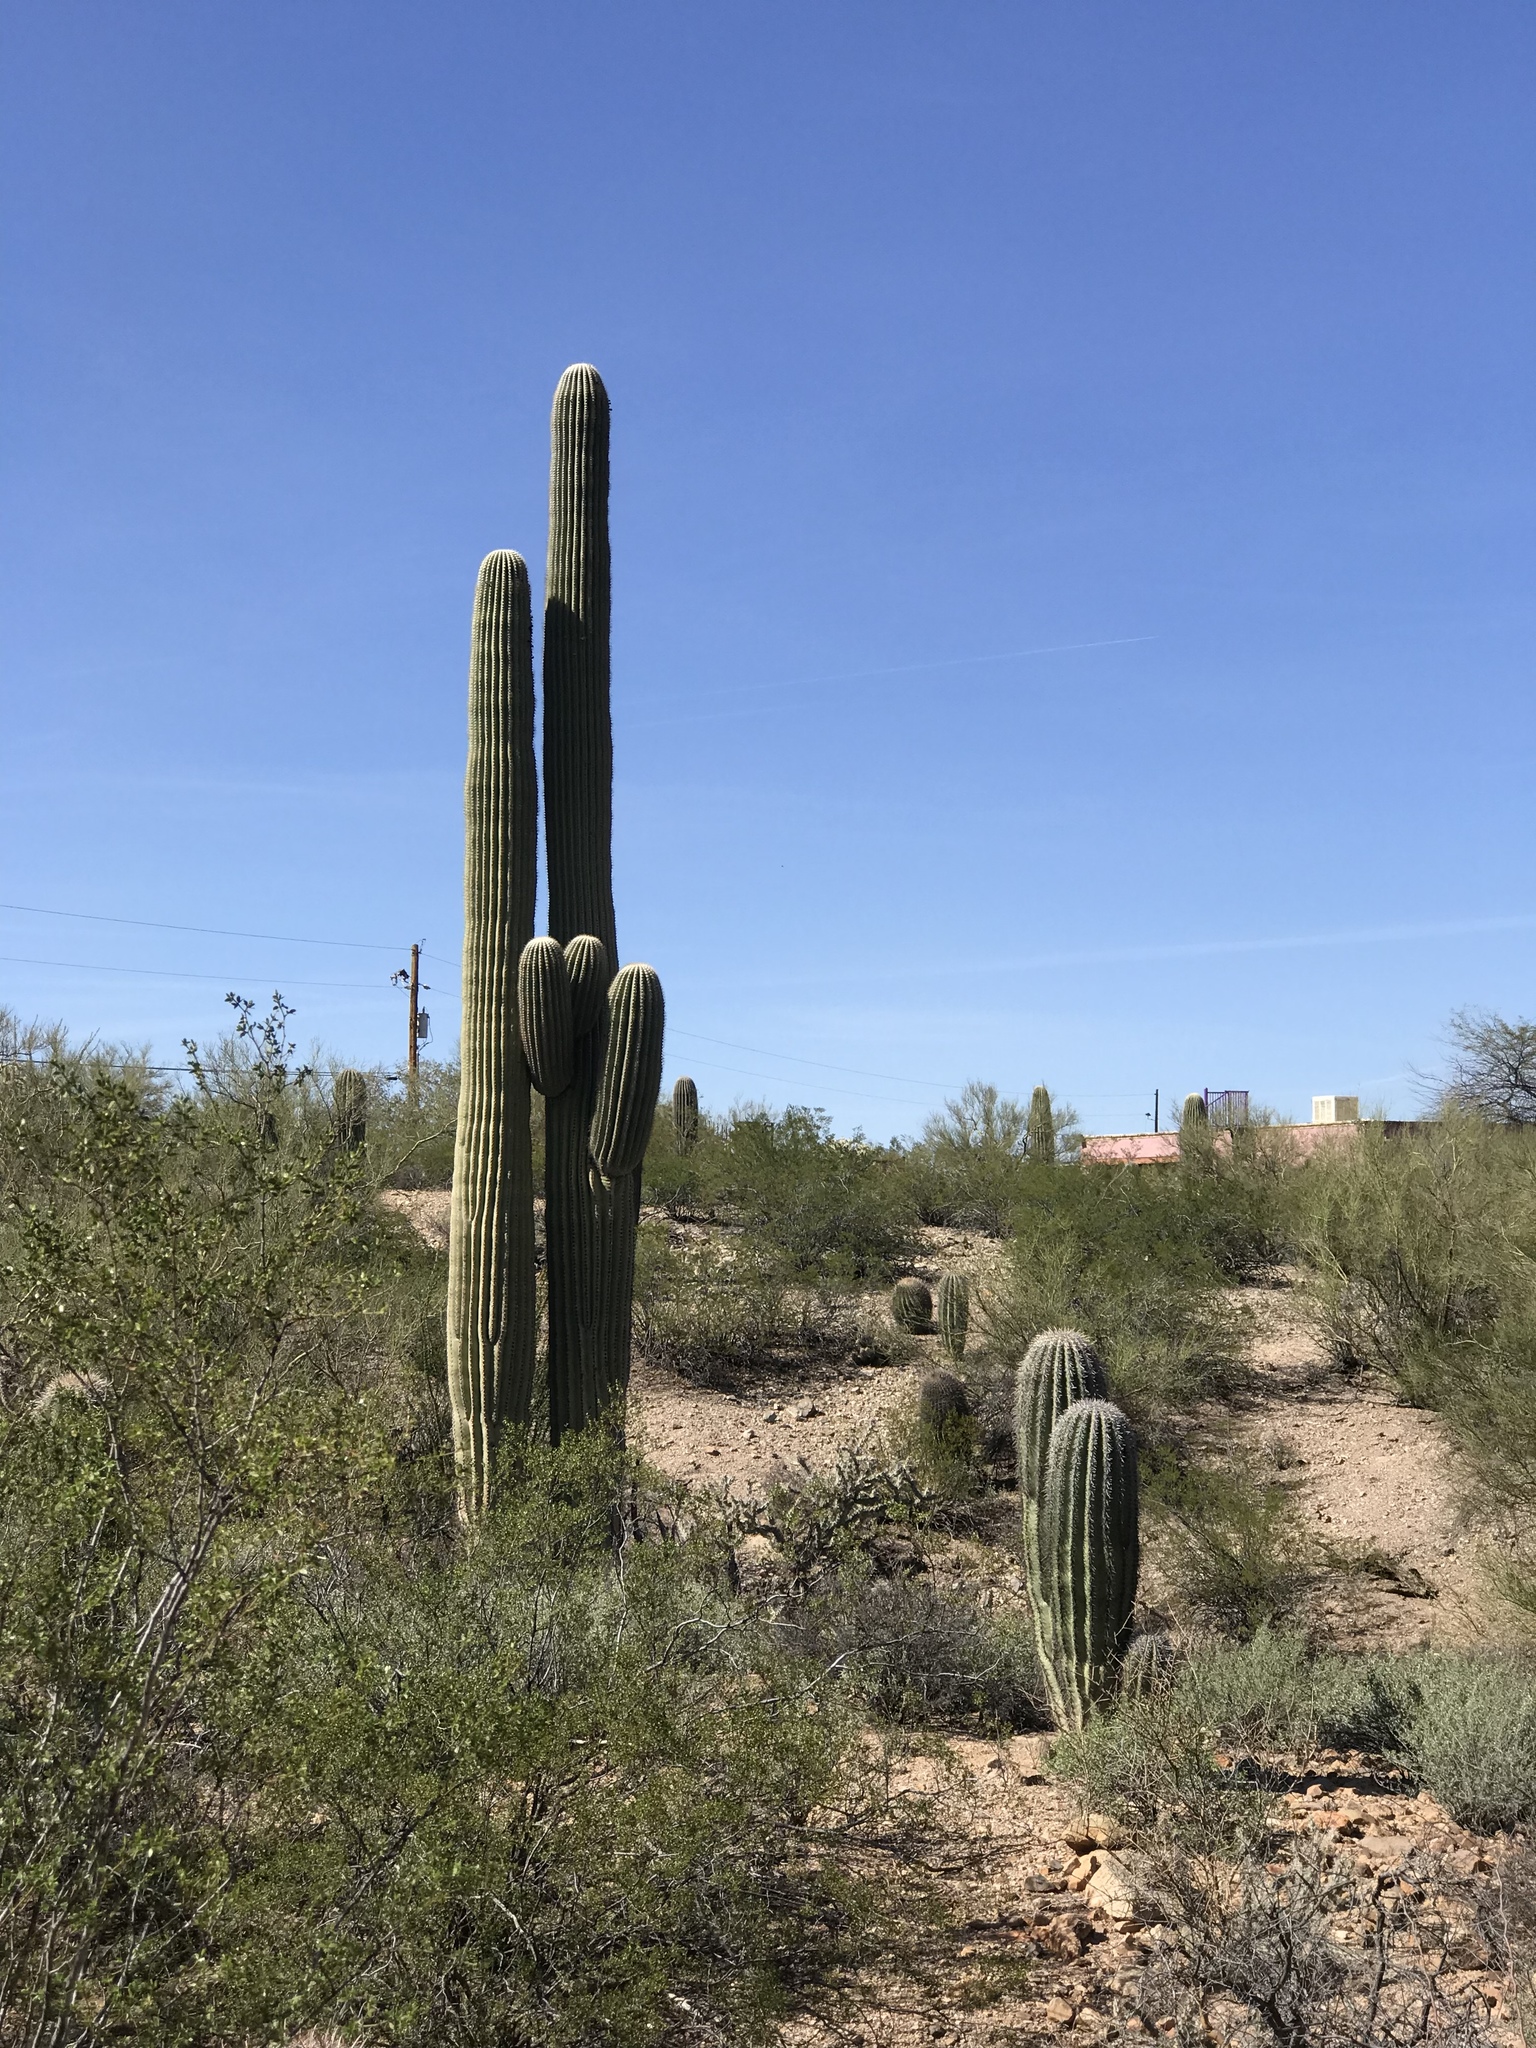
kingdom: Plantae
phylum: Tracheophyta
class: Magnoliopsida
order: Caryophyllales
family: Cactaceae
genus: Carnegiea
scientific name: Carnegiea gigantea
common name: Saguaro
